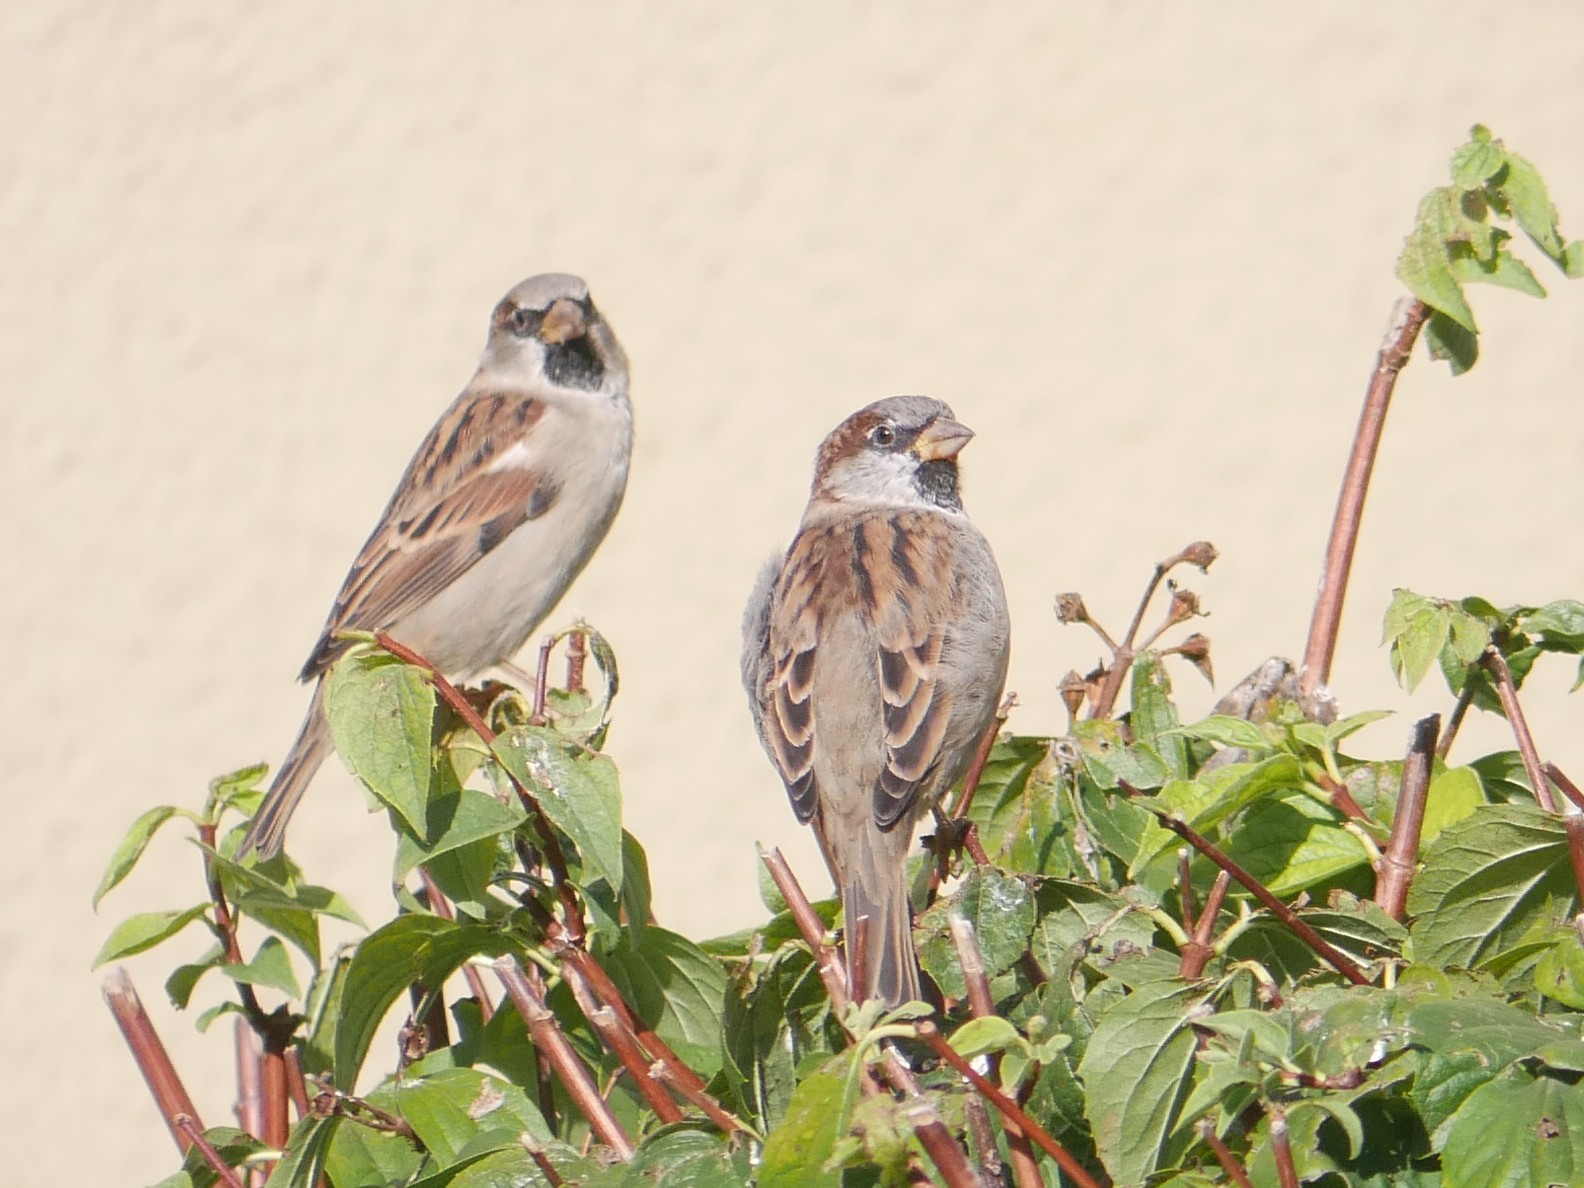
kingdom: Animalia
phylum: Chordata
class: Aves
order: Passeriformes
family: Passeridae
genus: Passer
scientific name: Passer domesticus
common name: House sparrow
